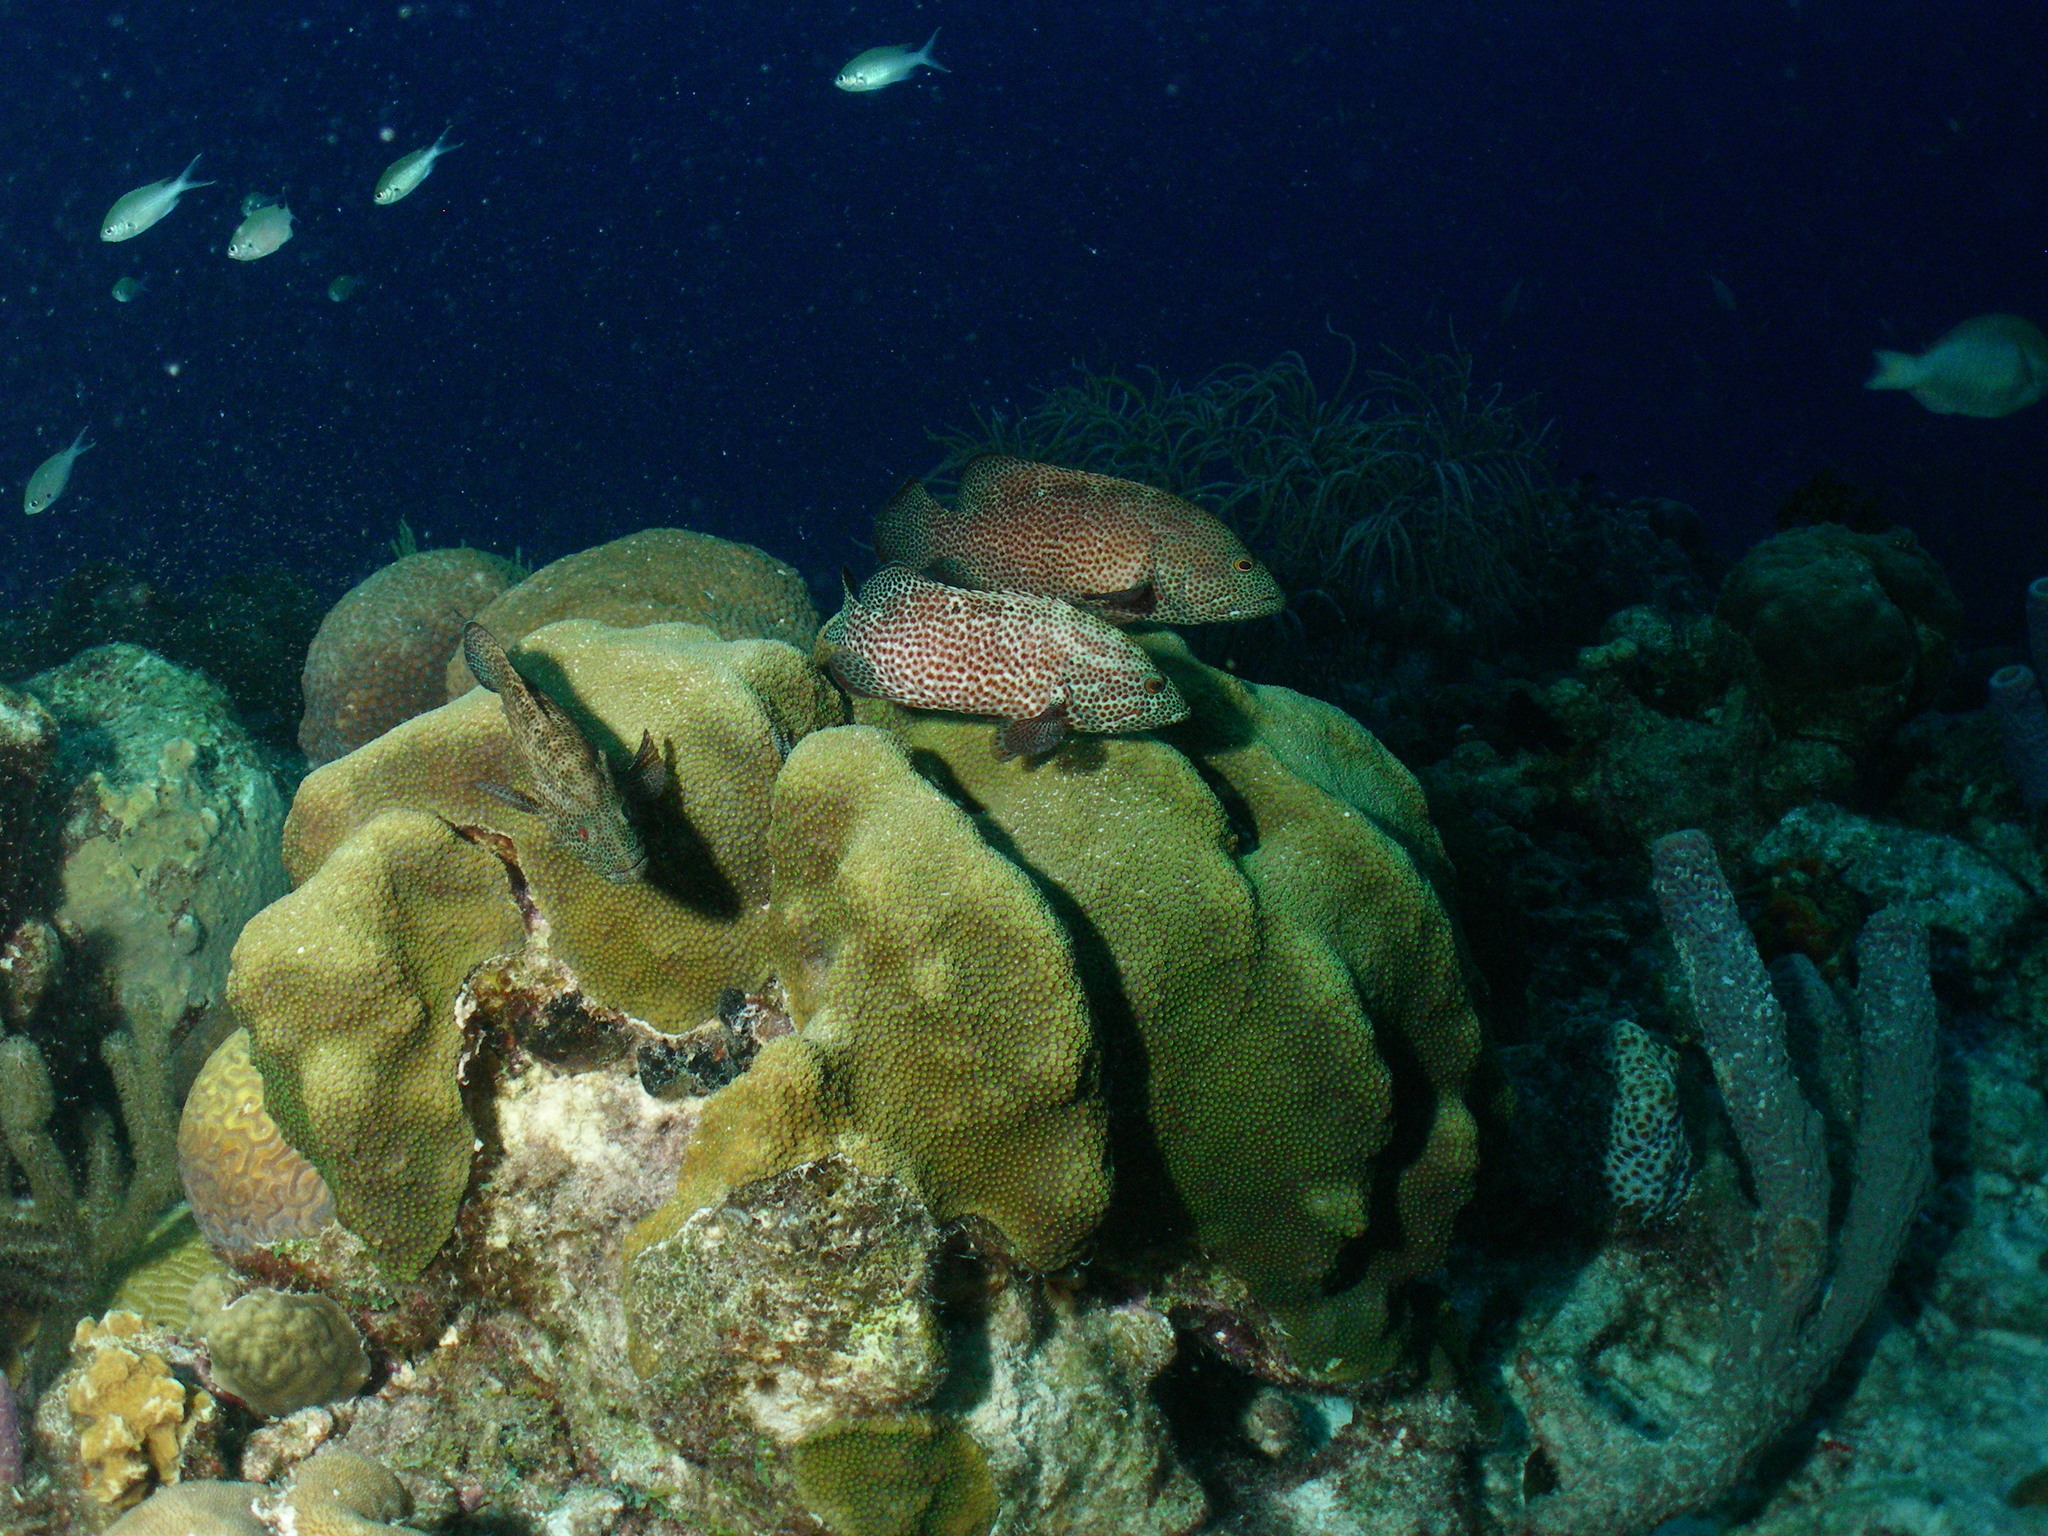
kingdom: Animalia
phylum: Chordata
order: Perciformes
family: Serranidae
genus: Cephalopholis
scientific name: Cephalopholis cruentata
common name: Graysby
